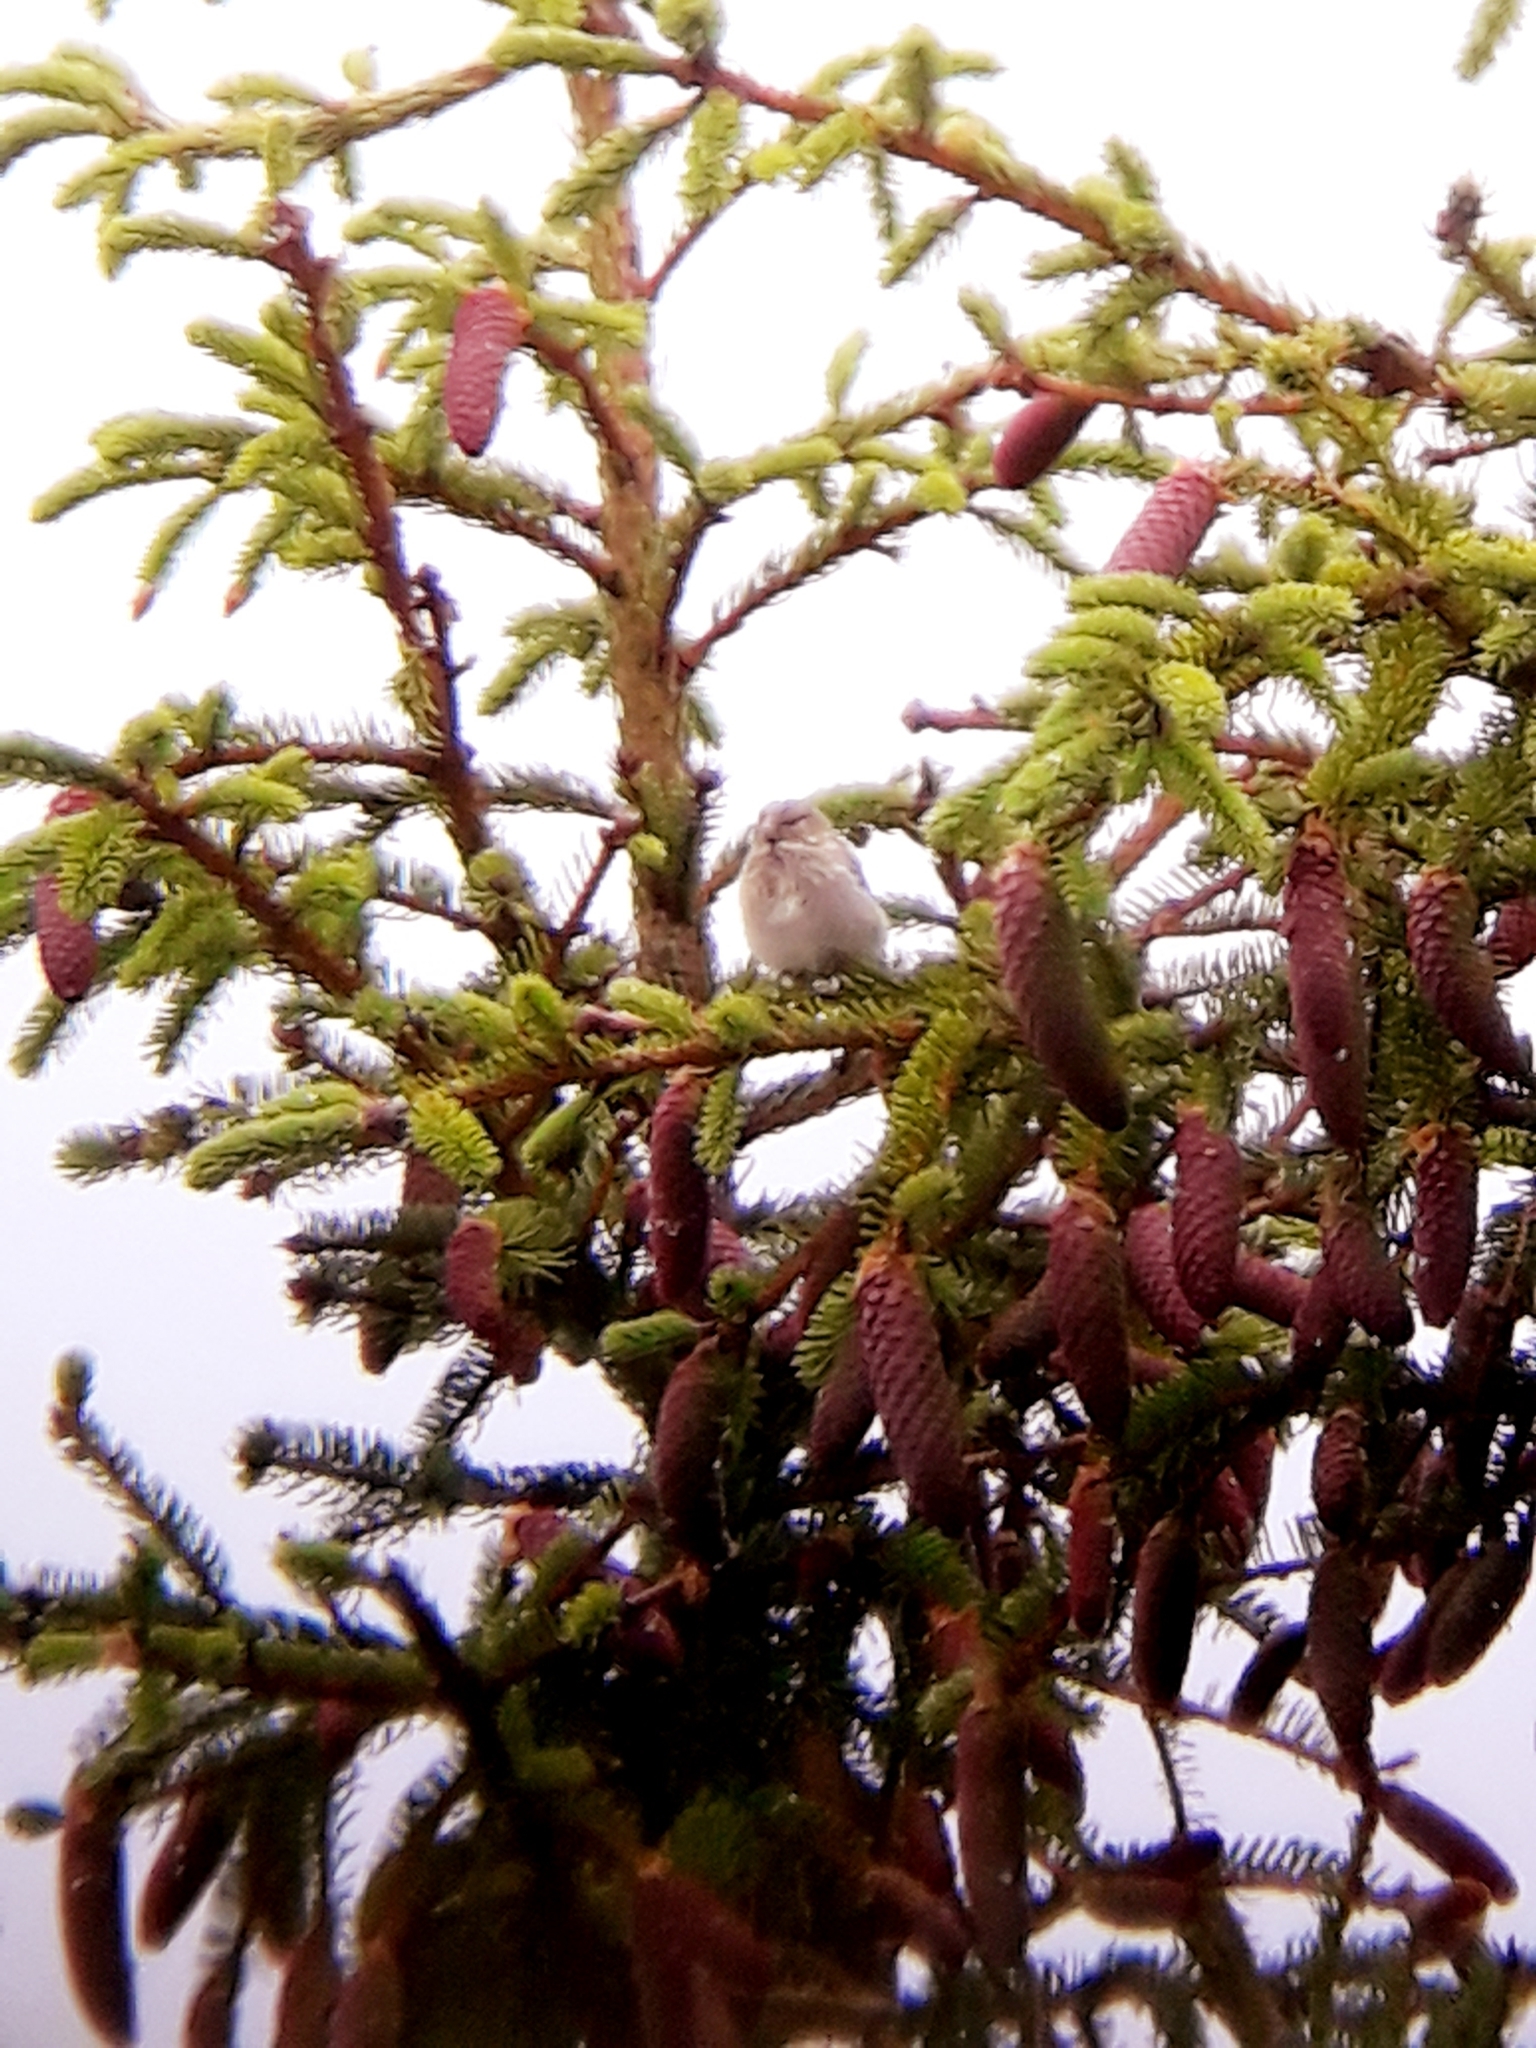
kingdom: Animalia
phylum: Chordata
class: Aves
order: Passeriformes
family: Fringillidae
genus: Linaria
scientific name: Linaria cannabina
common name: Common linnet
